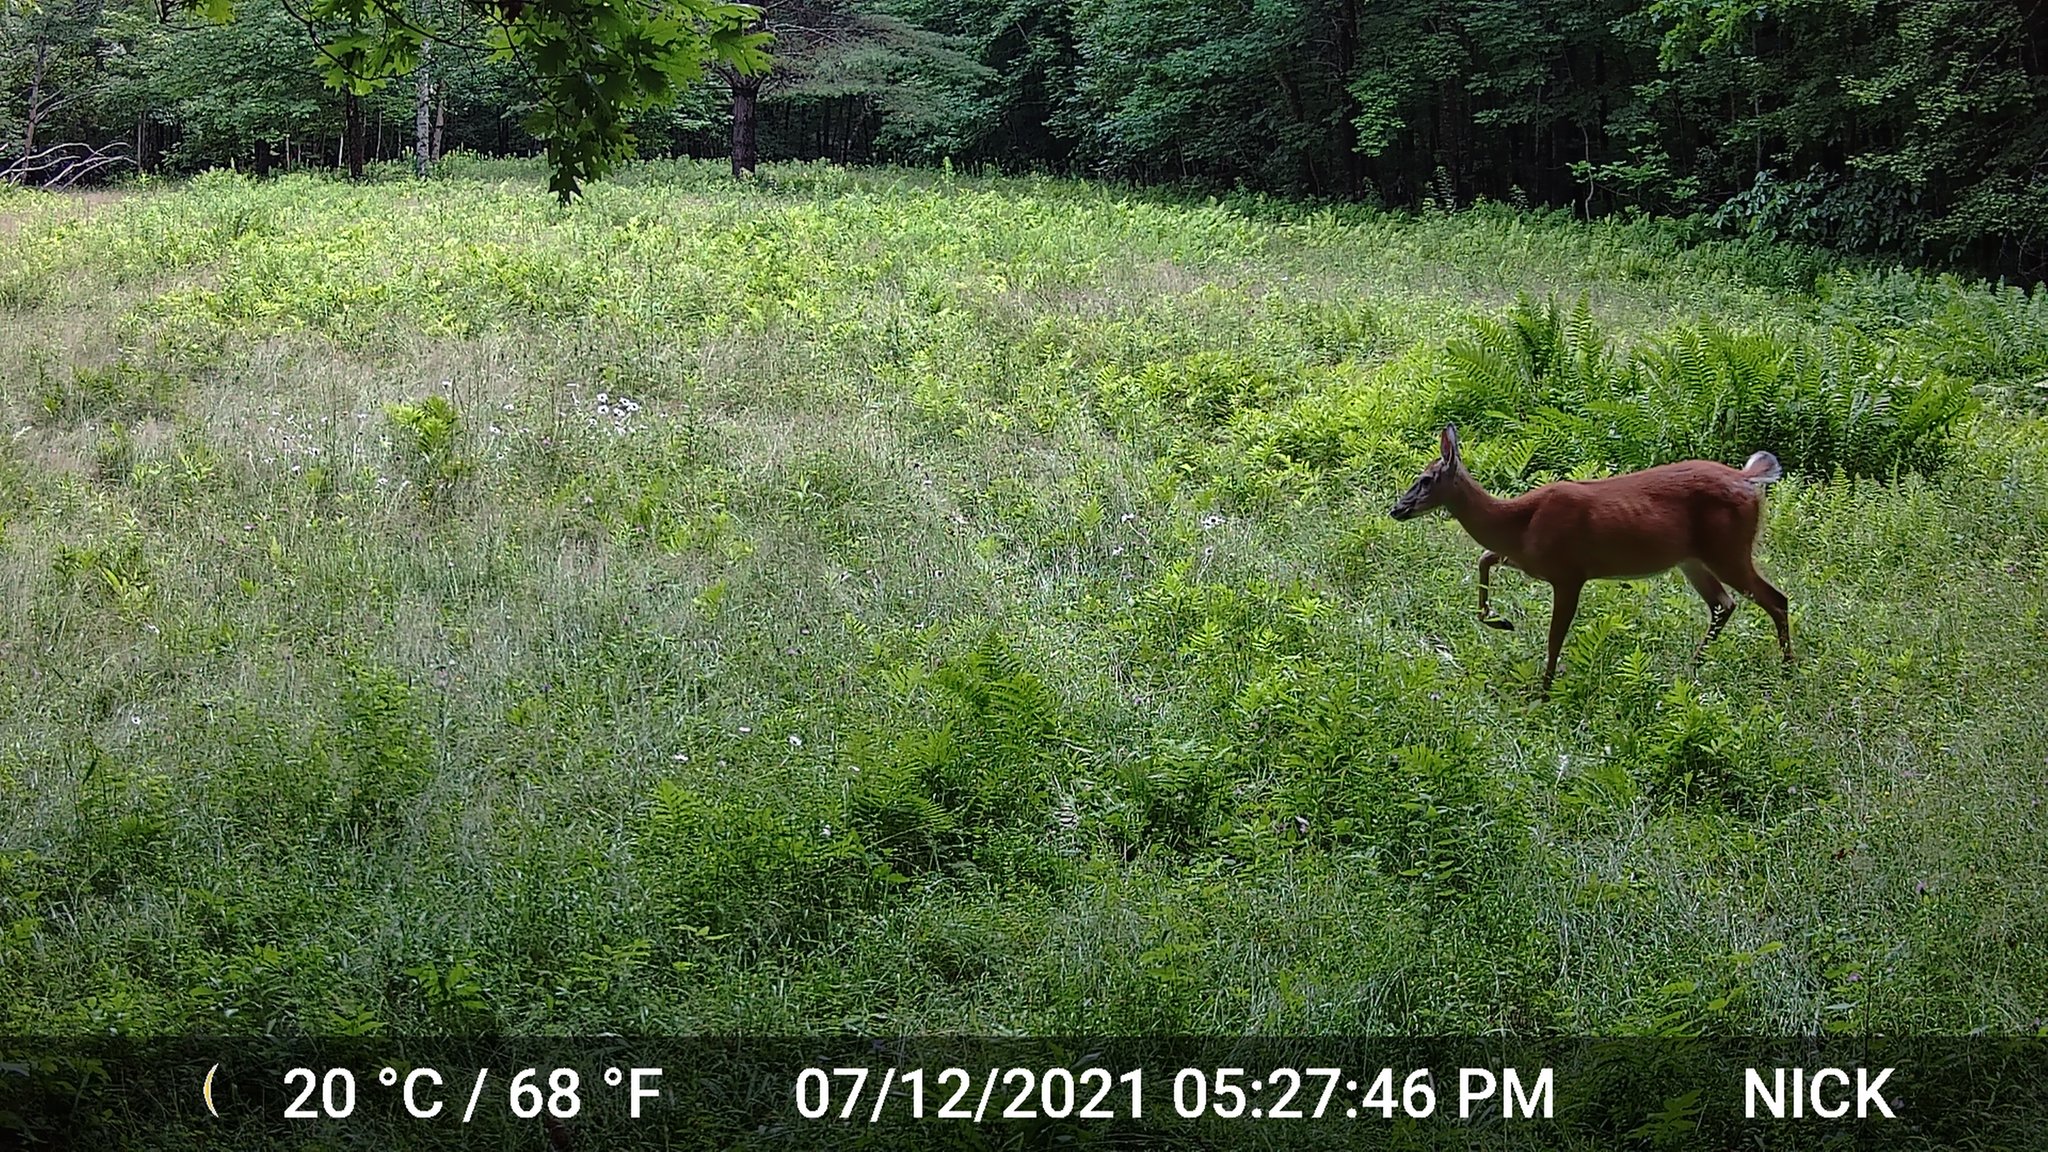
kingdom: Animalia
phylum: Chordata
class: Mammalia
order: Artiodactyla
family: Cervidae
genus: Odocoileus
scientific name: Odocoileus virginianus
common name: White-tailed deer
